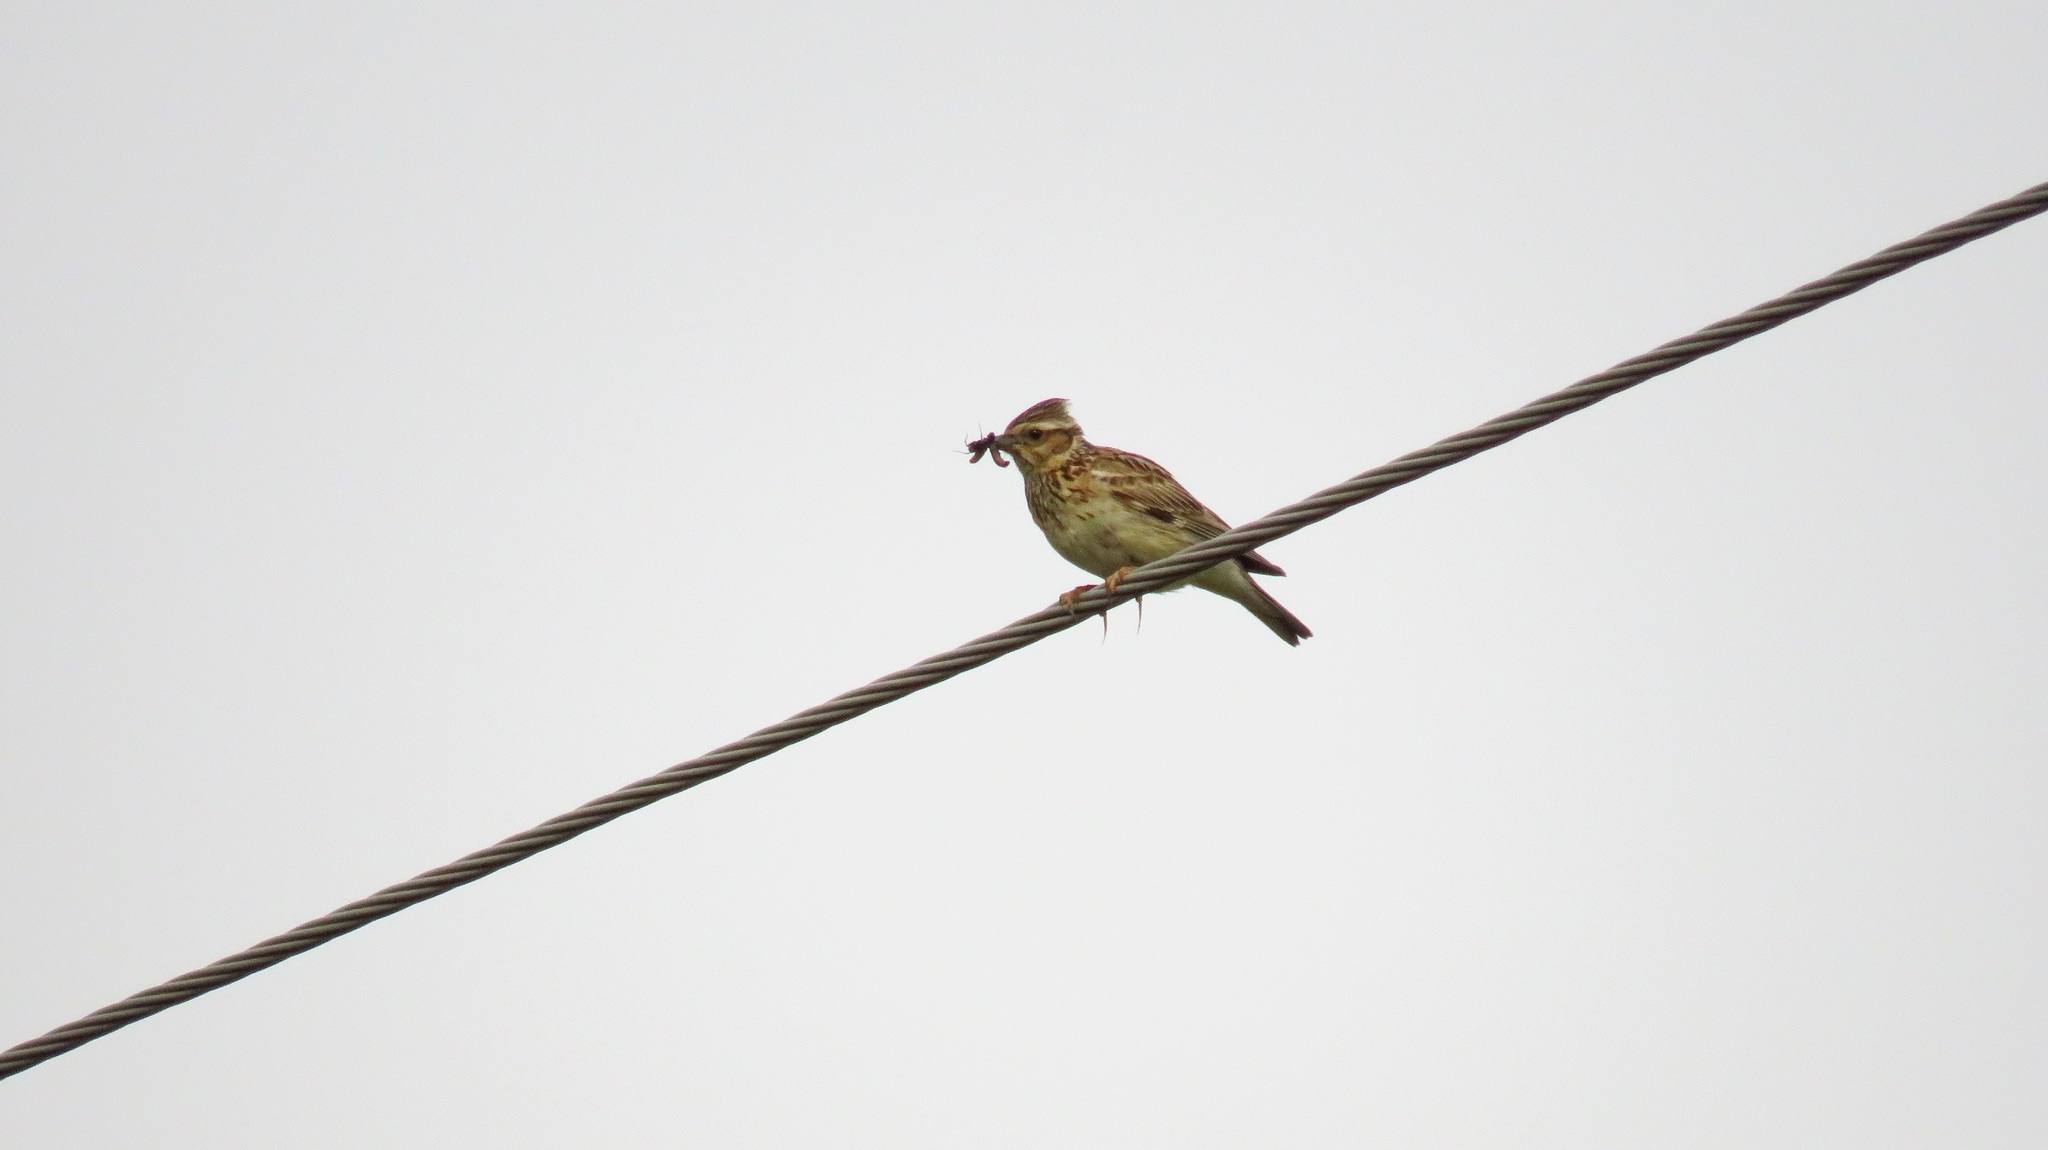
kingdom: Animalia
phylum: Chordata
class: Aves
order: Passeriformes
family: Alaudidae
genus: Lullula
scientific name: Lullula arborea
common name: Woodlark
